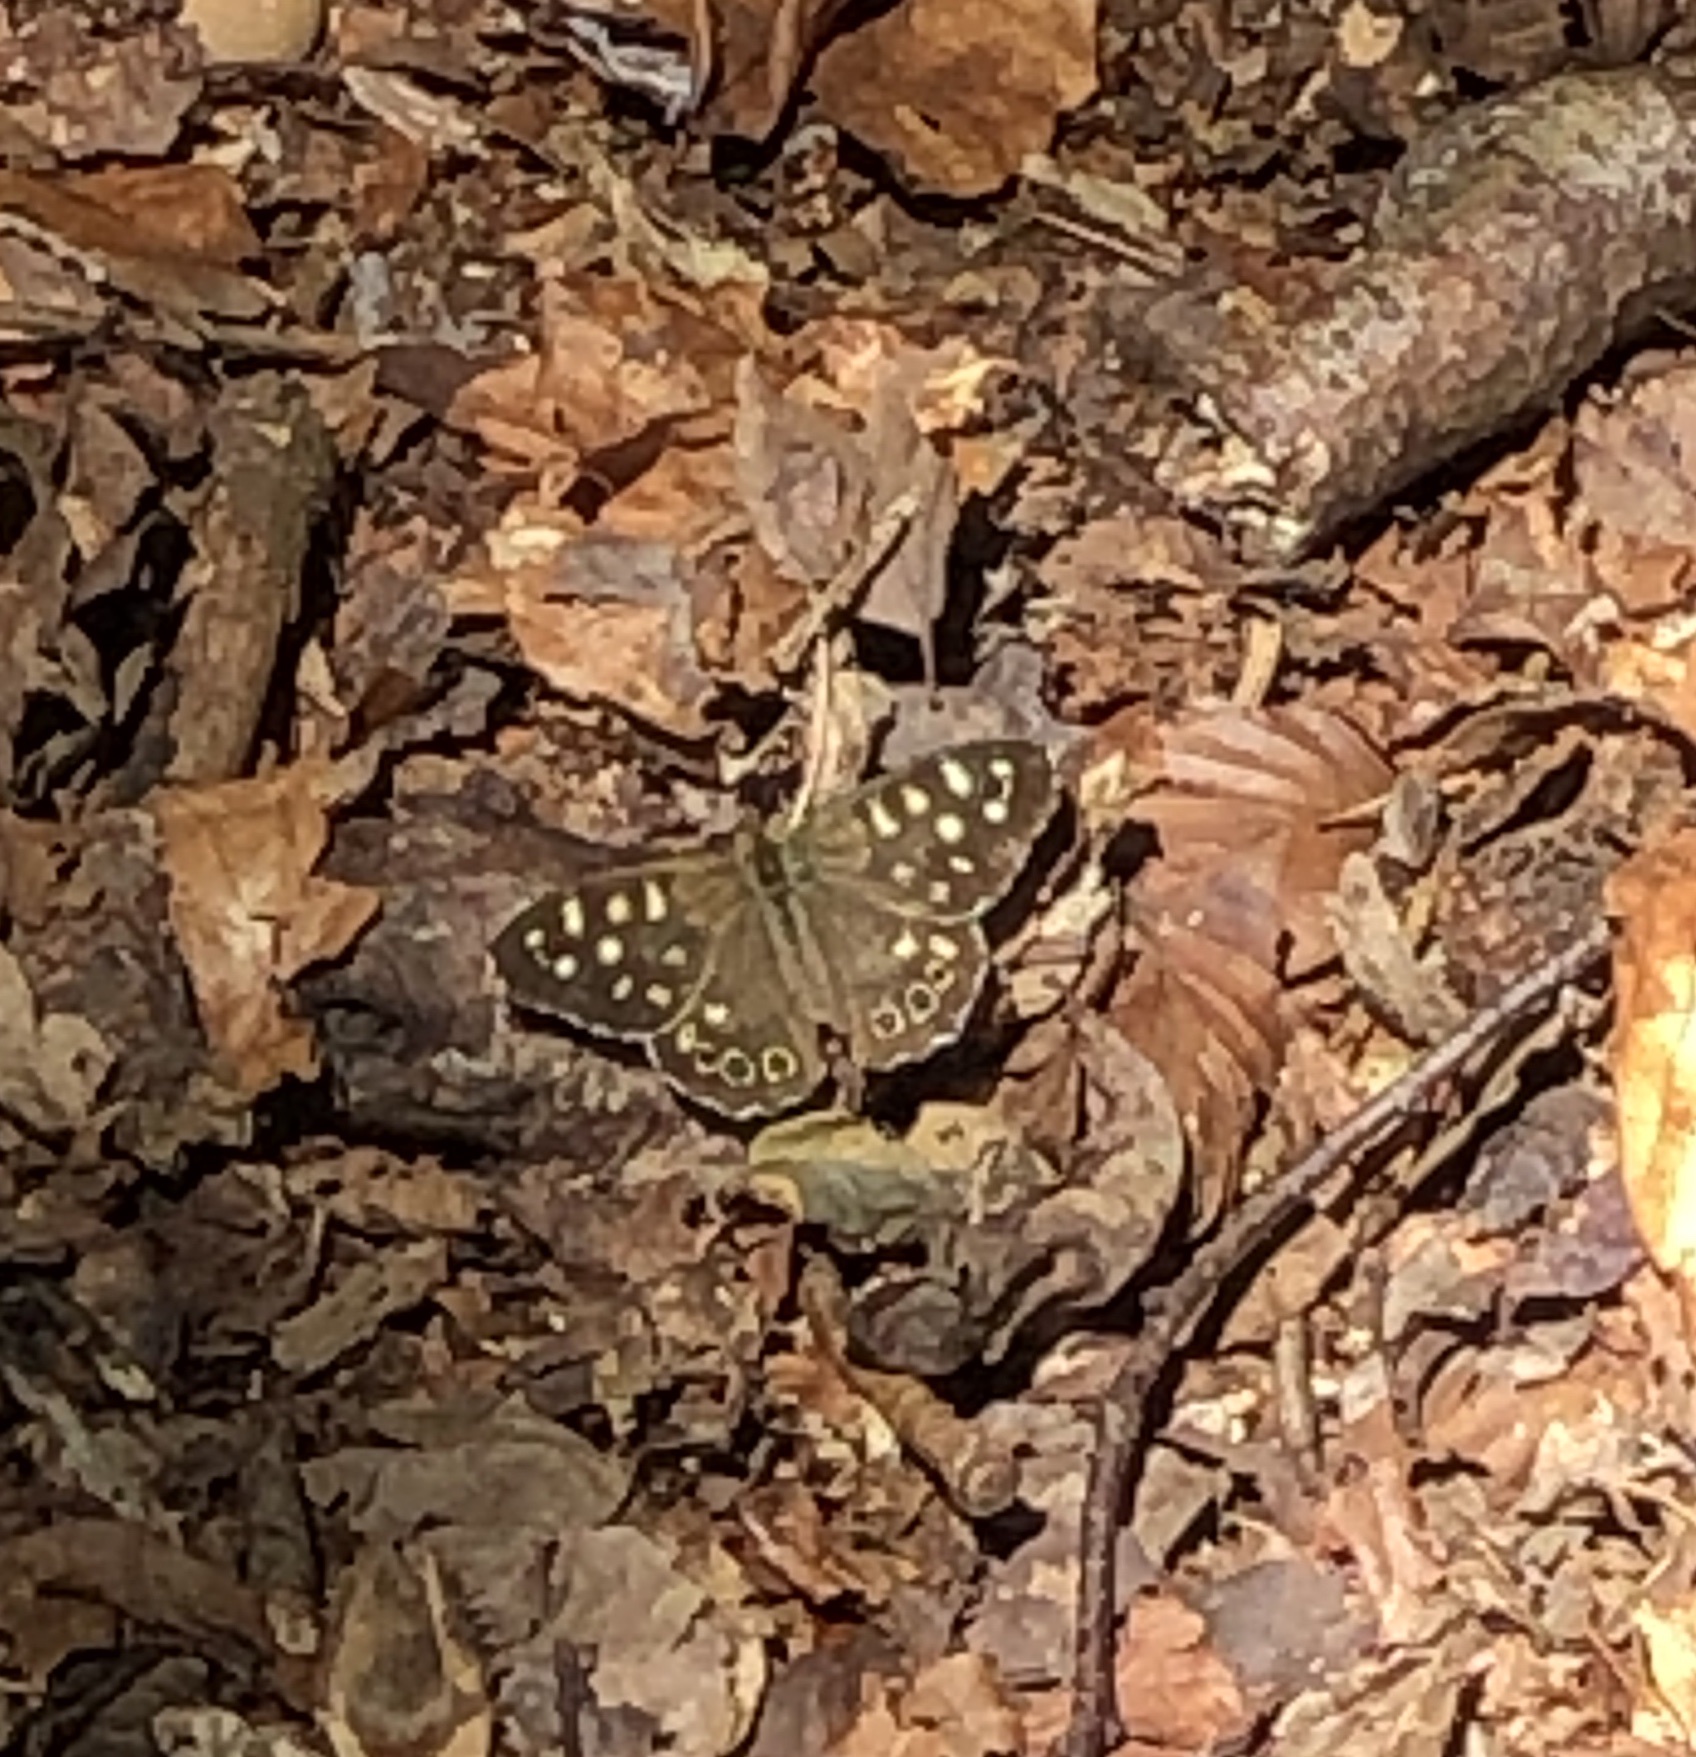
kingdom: Animalia
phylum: Arthropoda
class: Insecta
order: Lepidoptera
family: Nymphalidae
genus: Pararge
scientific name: Pararge aegeria
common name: Speckled wood
